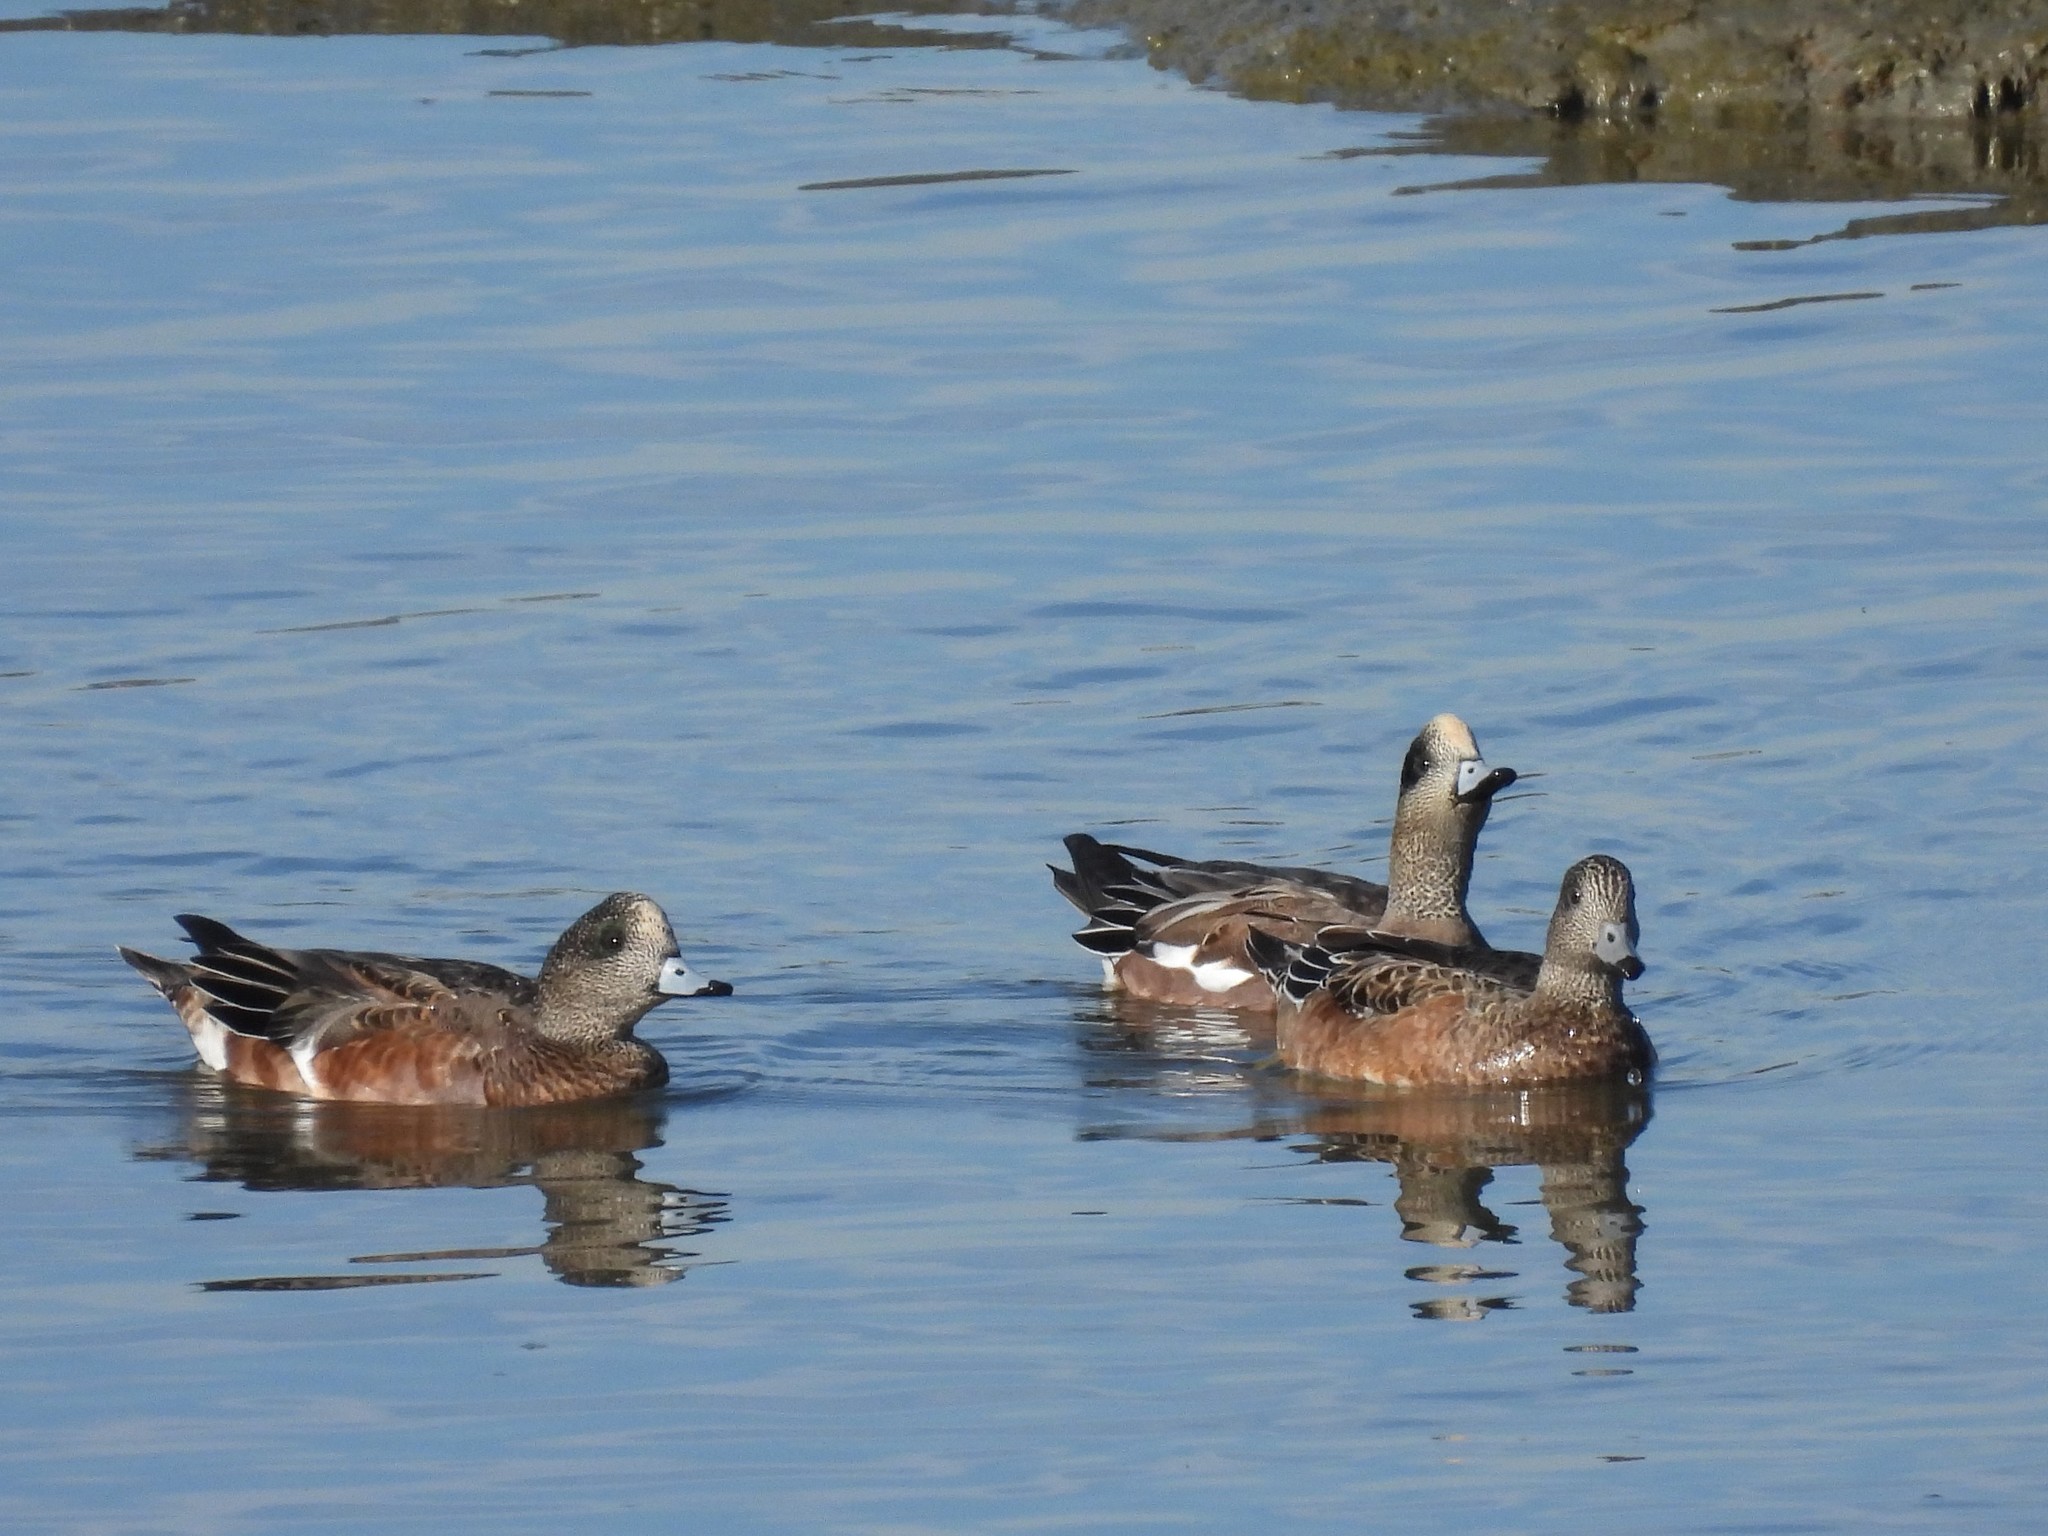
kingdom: Animalia
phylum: Chordata
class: Aves
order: Anseriformes
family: Anatidae
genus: Mareca
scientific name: Mareca americana
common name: American wigeon
